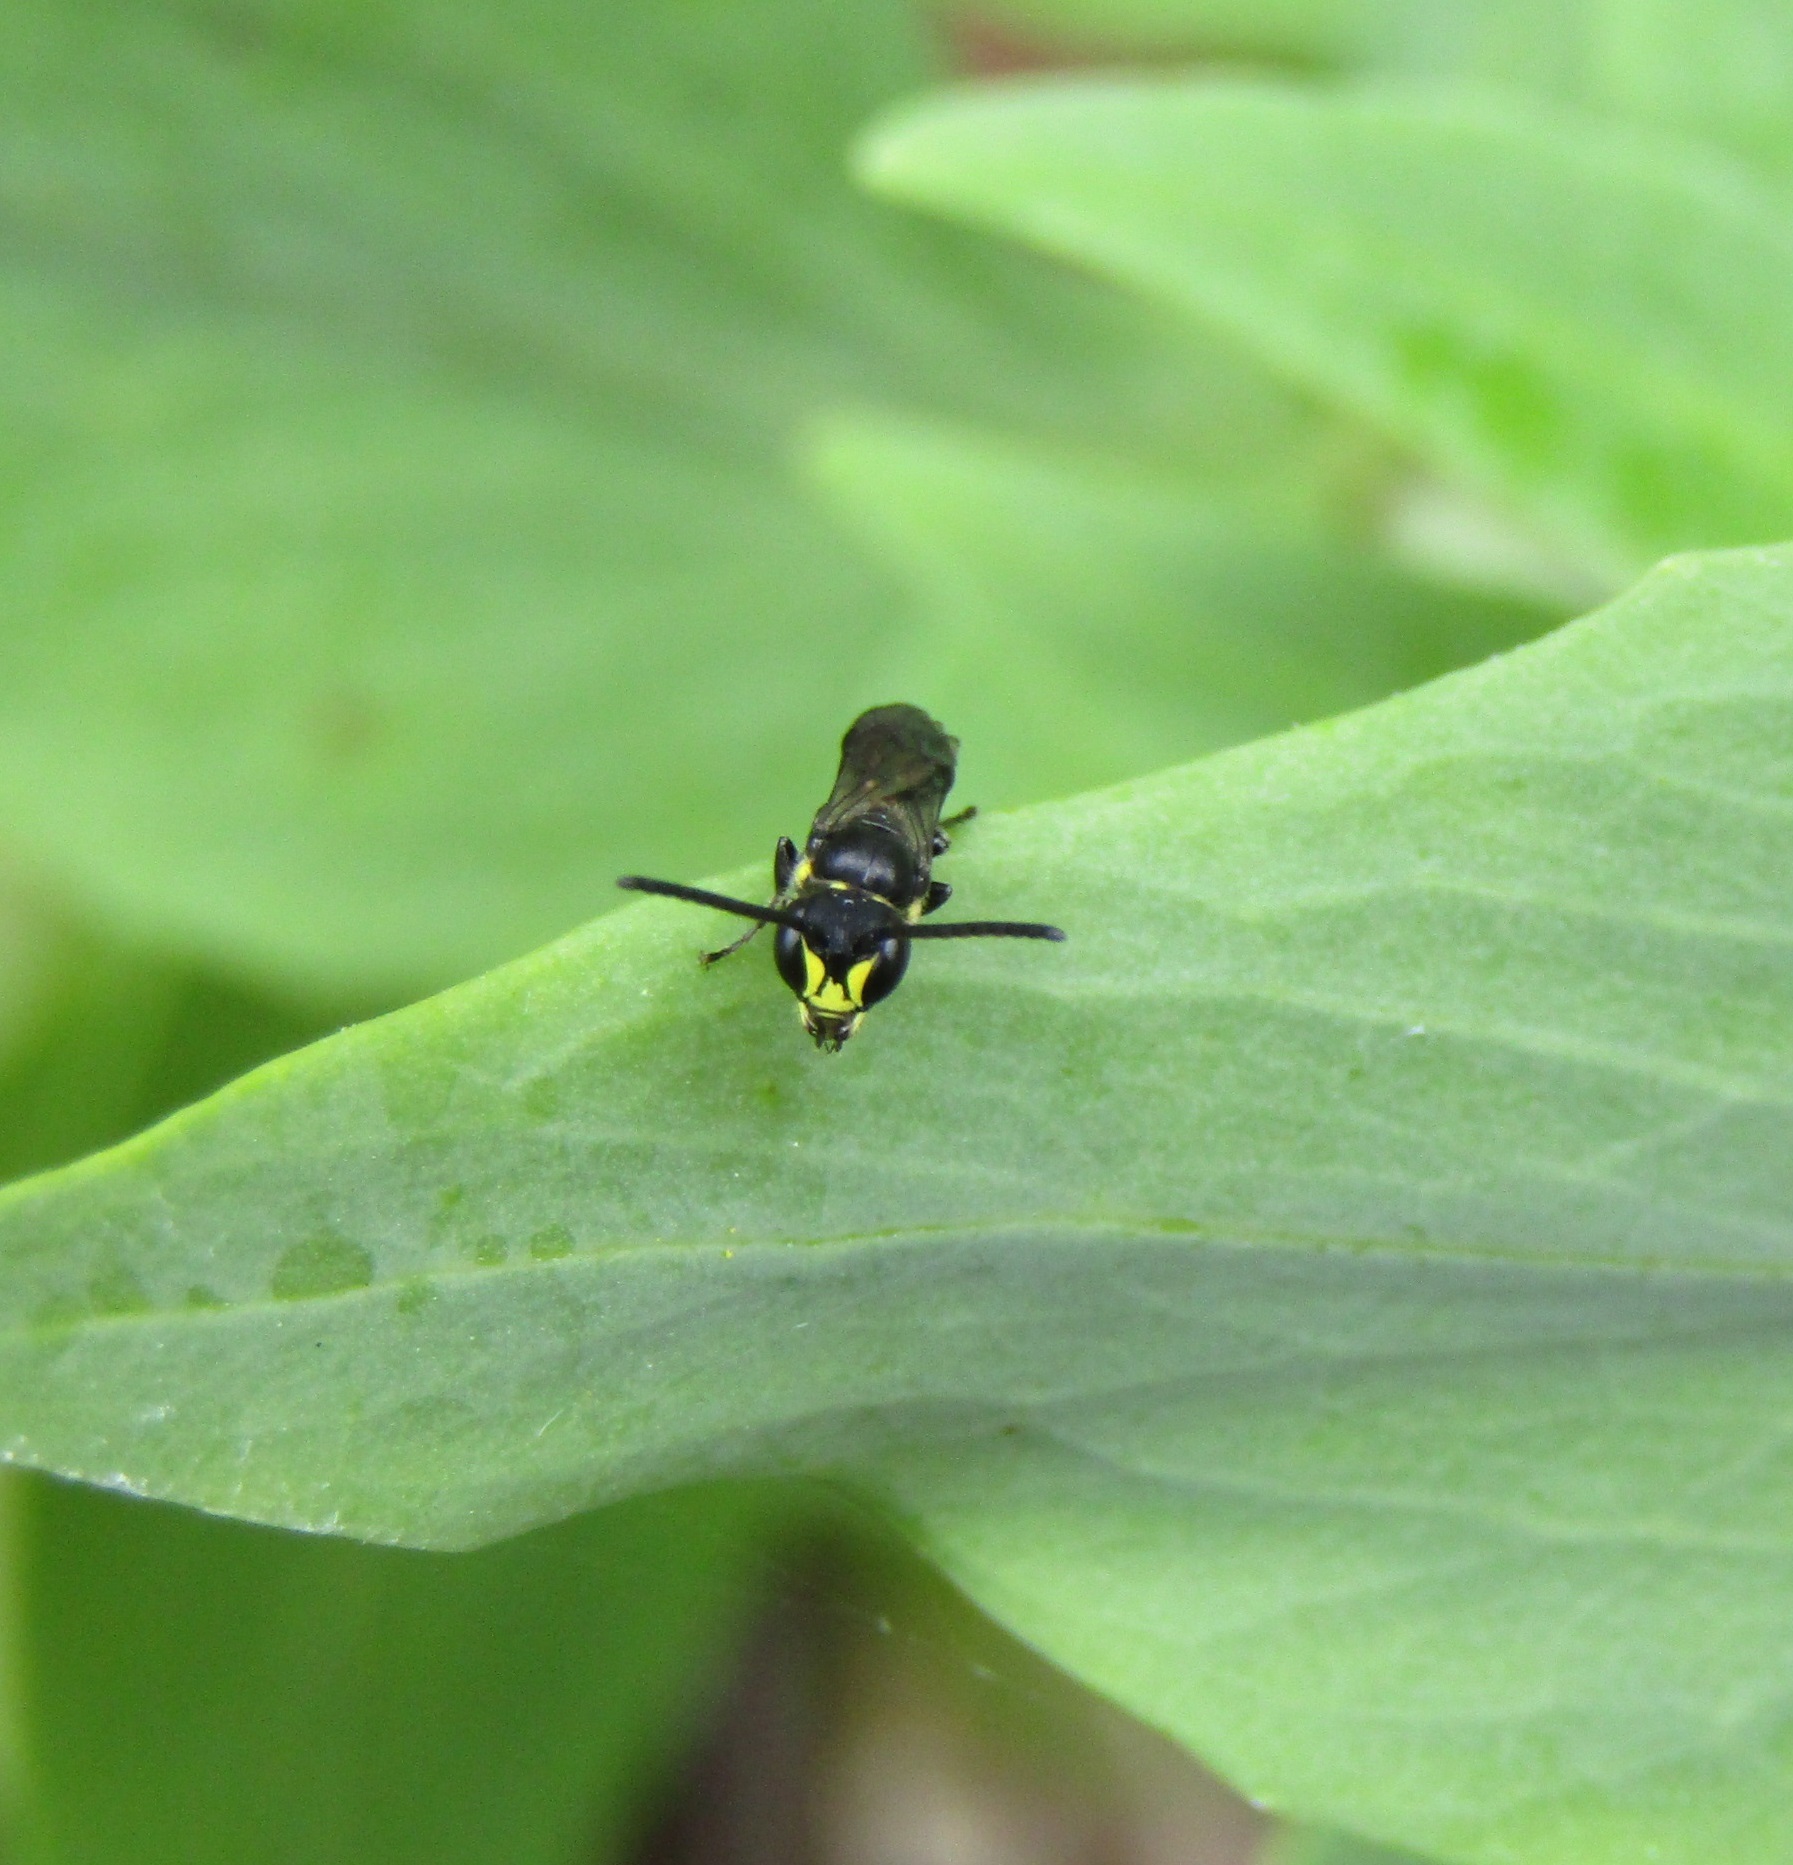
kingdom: Animalia
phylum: Arthropoda
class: Insecta
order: Hymenoptera
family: Colletidae
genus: Hylaeus
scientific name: Hylaeus agilis
